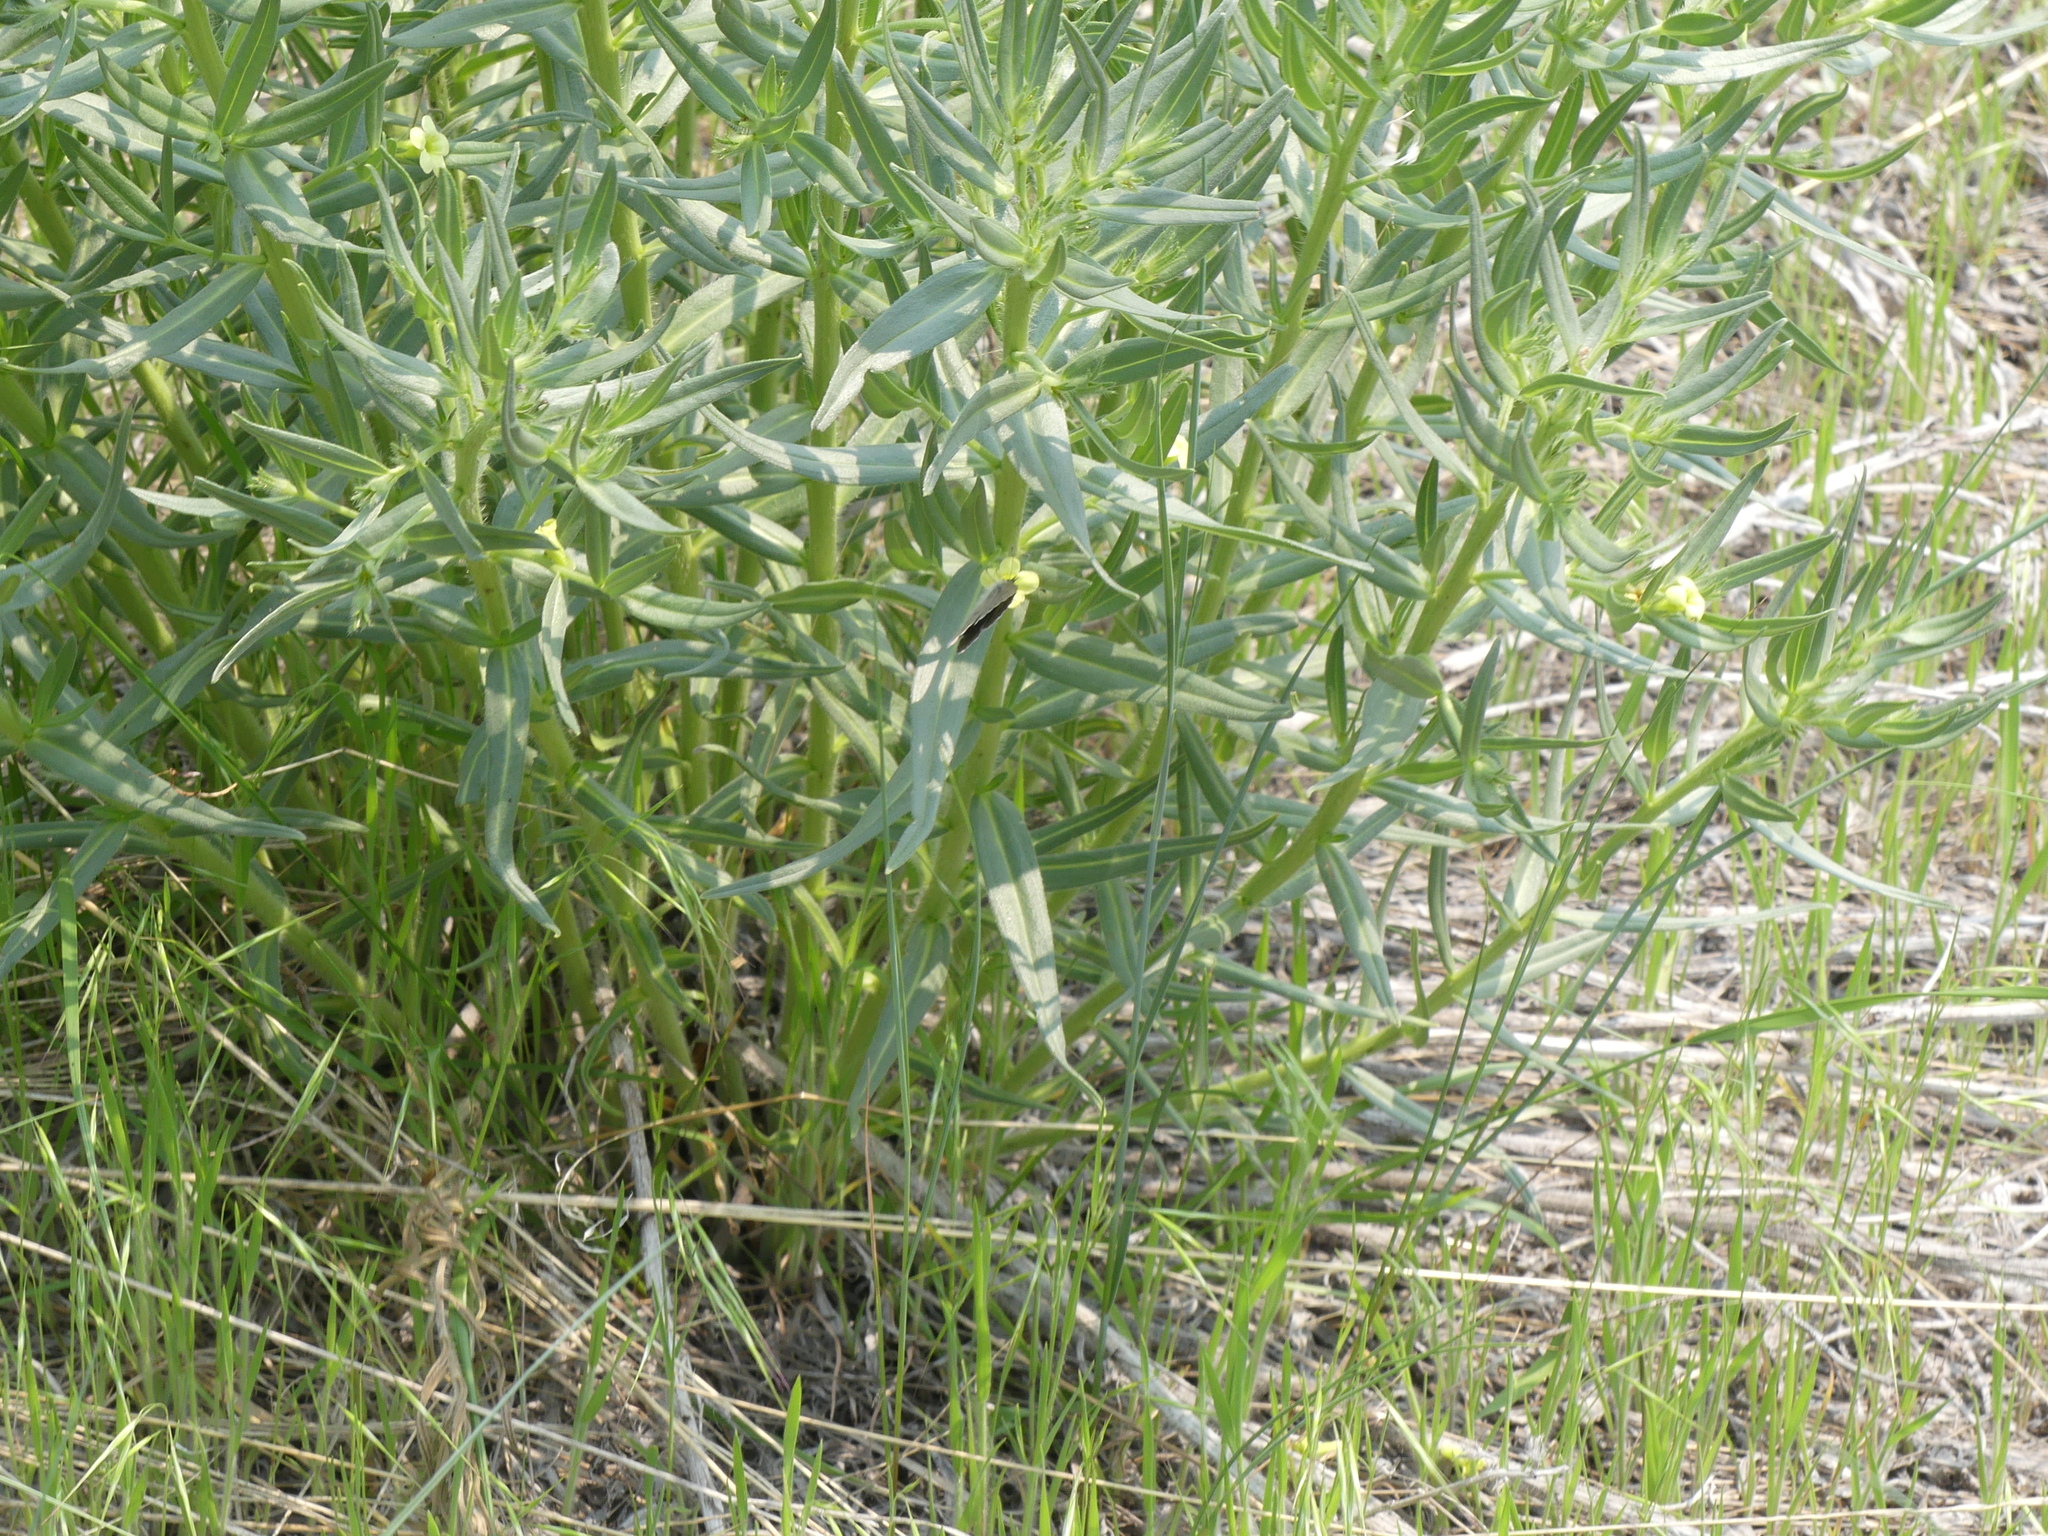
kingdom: Plantae
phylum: Tracheophyta
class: Magnoliopsida
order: Boraginales
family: Boraginaceae
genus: Lithospermum
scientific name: Lithospermum ruderale
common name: Western gromwell
